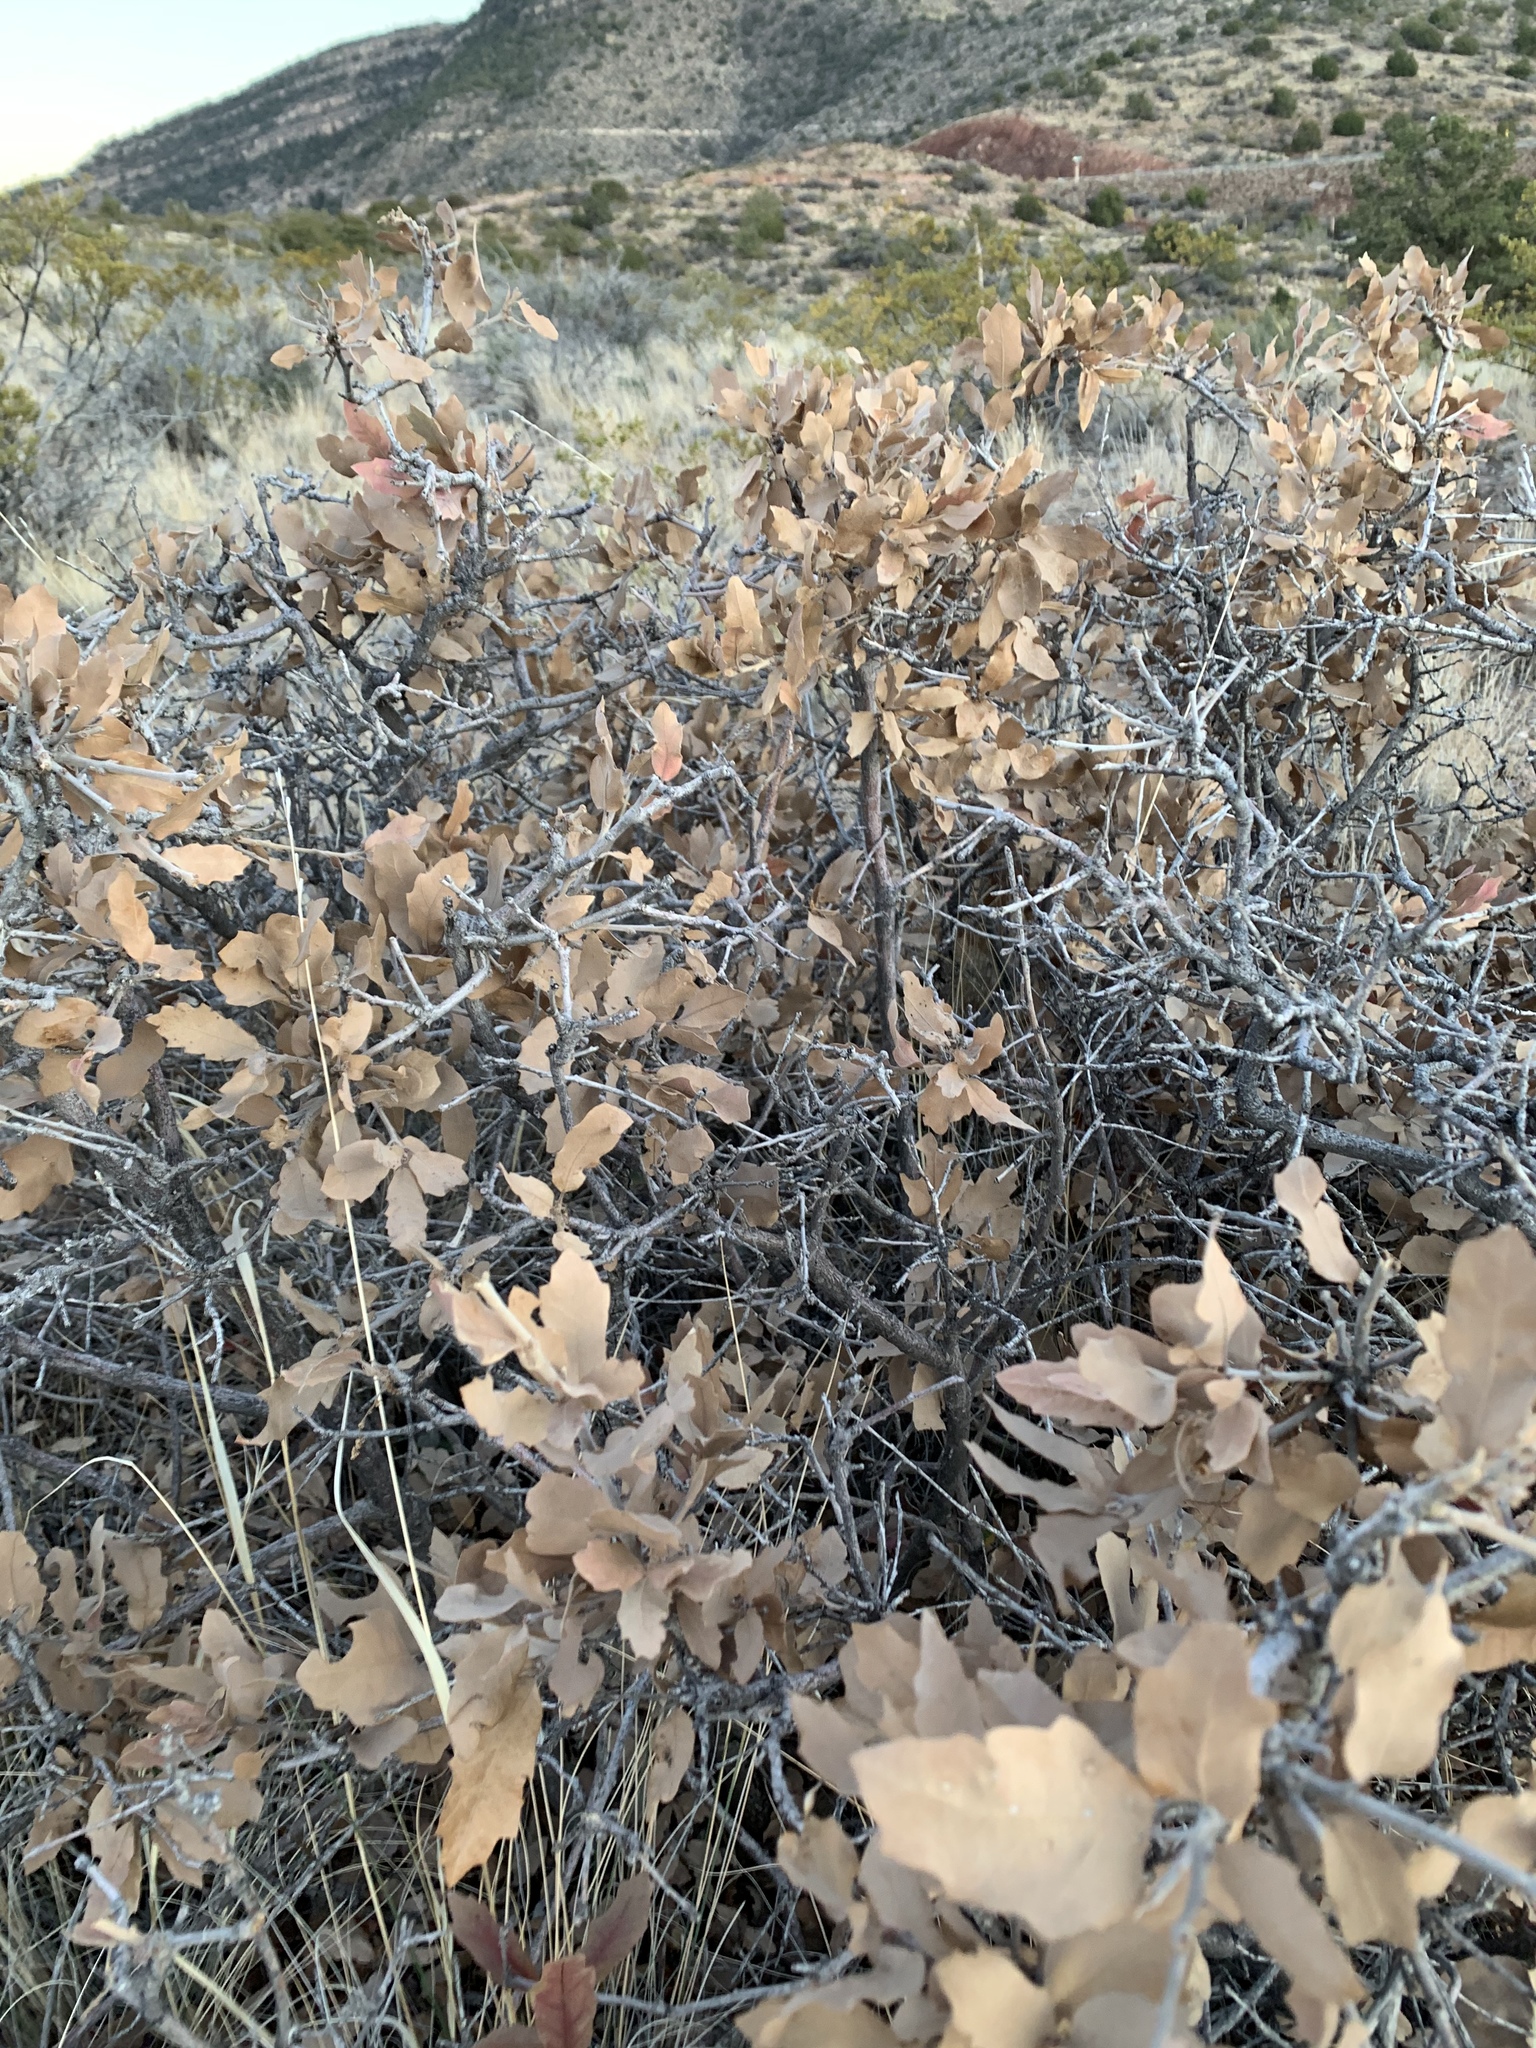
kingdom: Plantae
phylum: Tracheophyta
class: Magnoliopsida
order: Fagales
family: Fagaceae
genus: Quercus
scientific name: Quercus undulata
